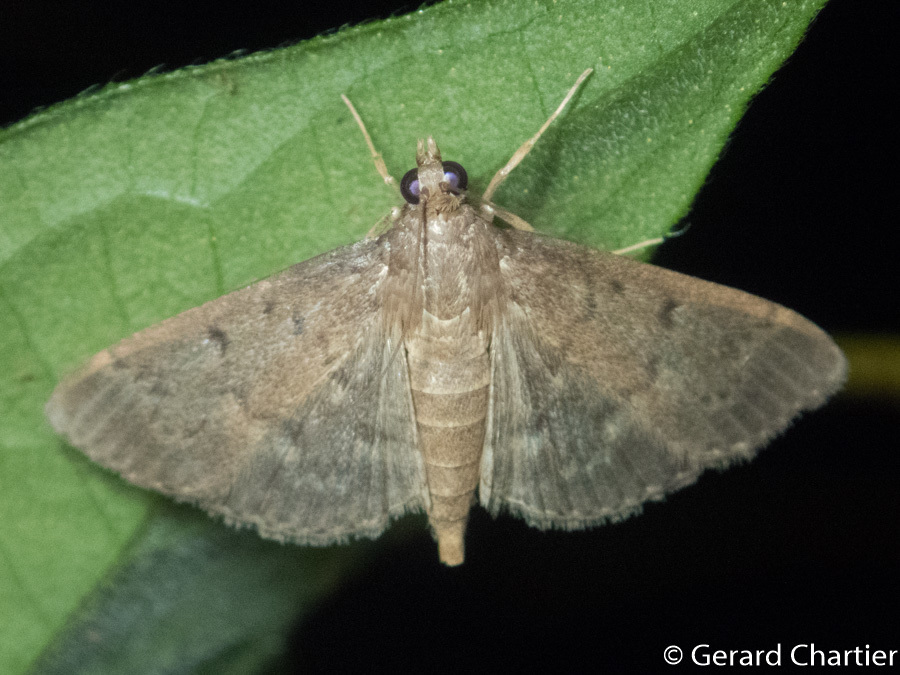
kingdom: Animalia
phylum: Arthropoda
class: Insecta
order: Lepidoptera
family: Crambidae
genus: Herpetogramma
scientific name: Herpetogramma licarsisalis
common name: Grass webworm
